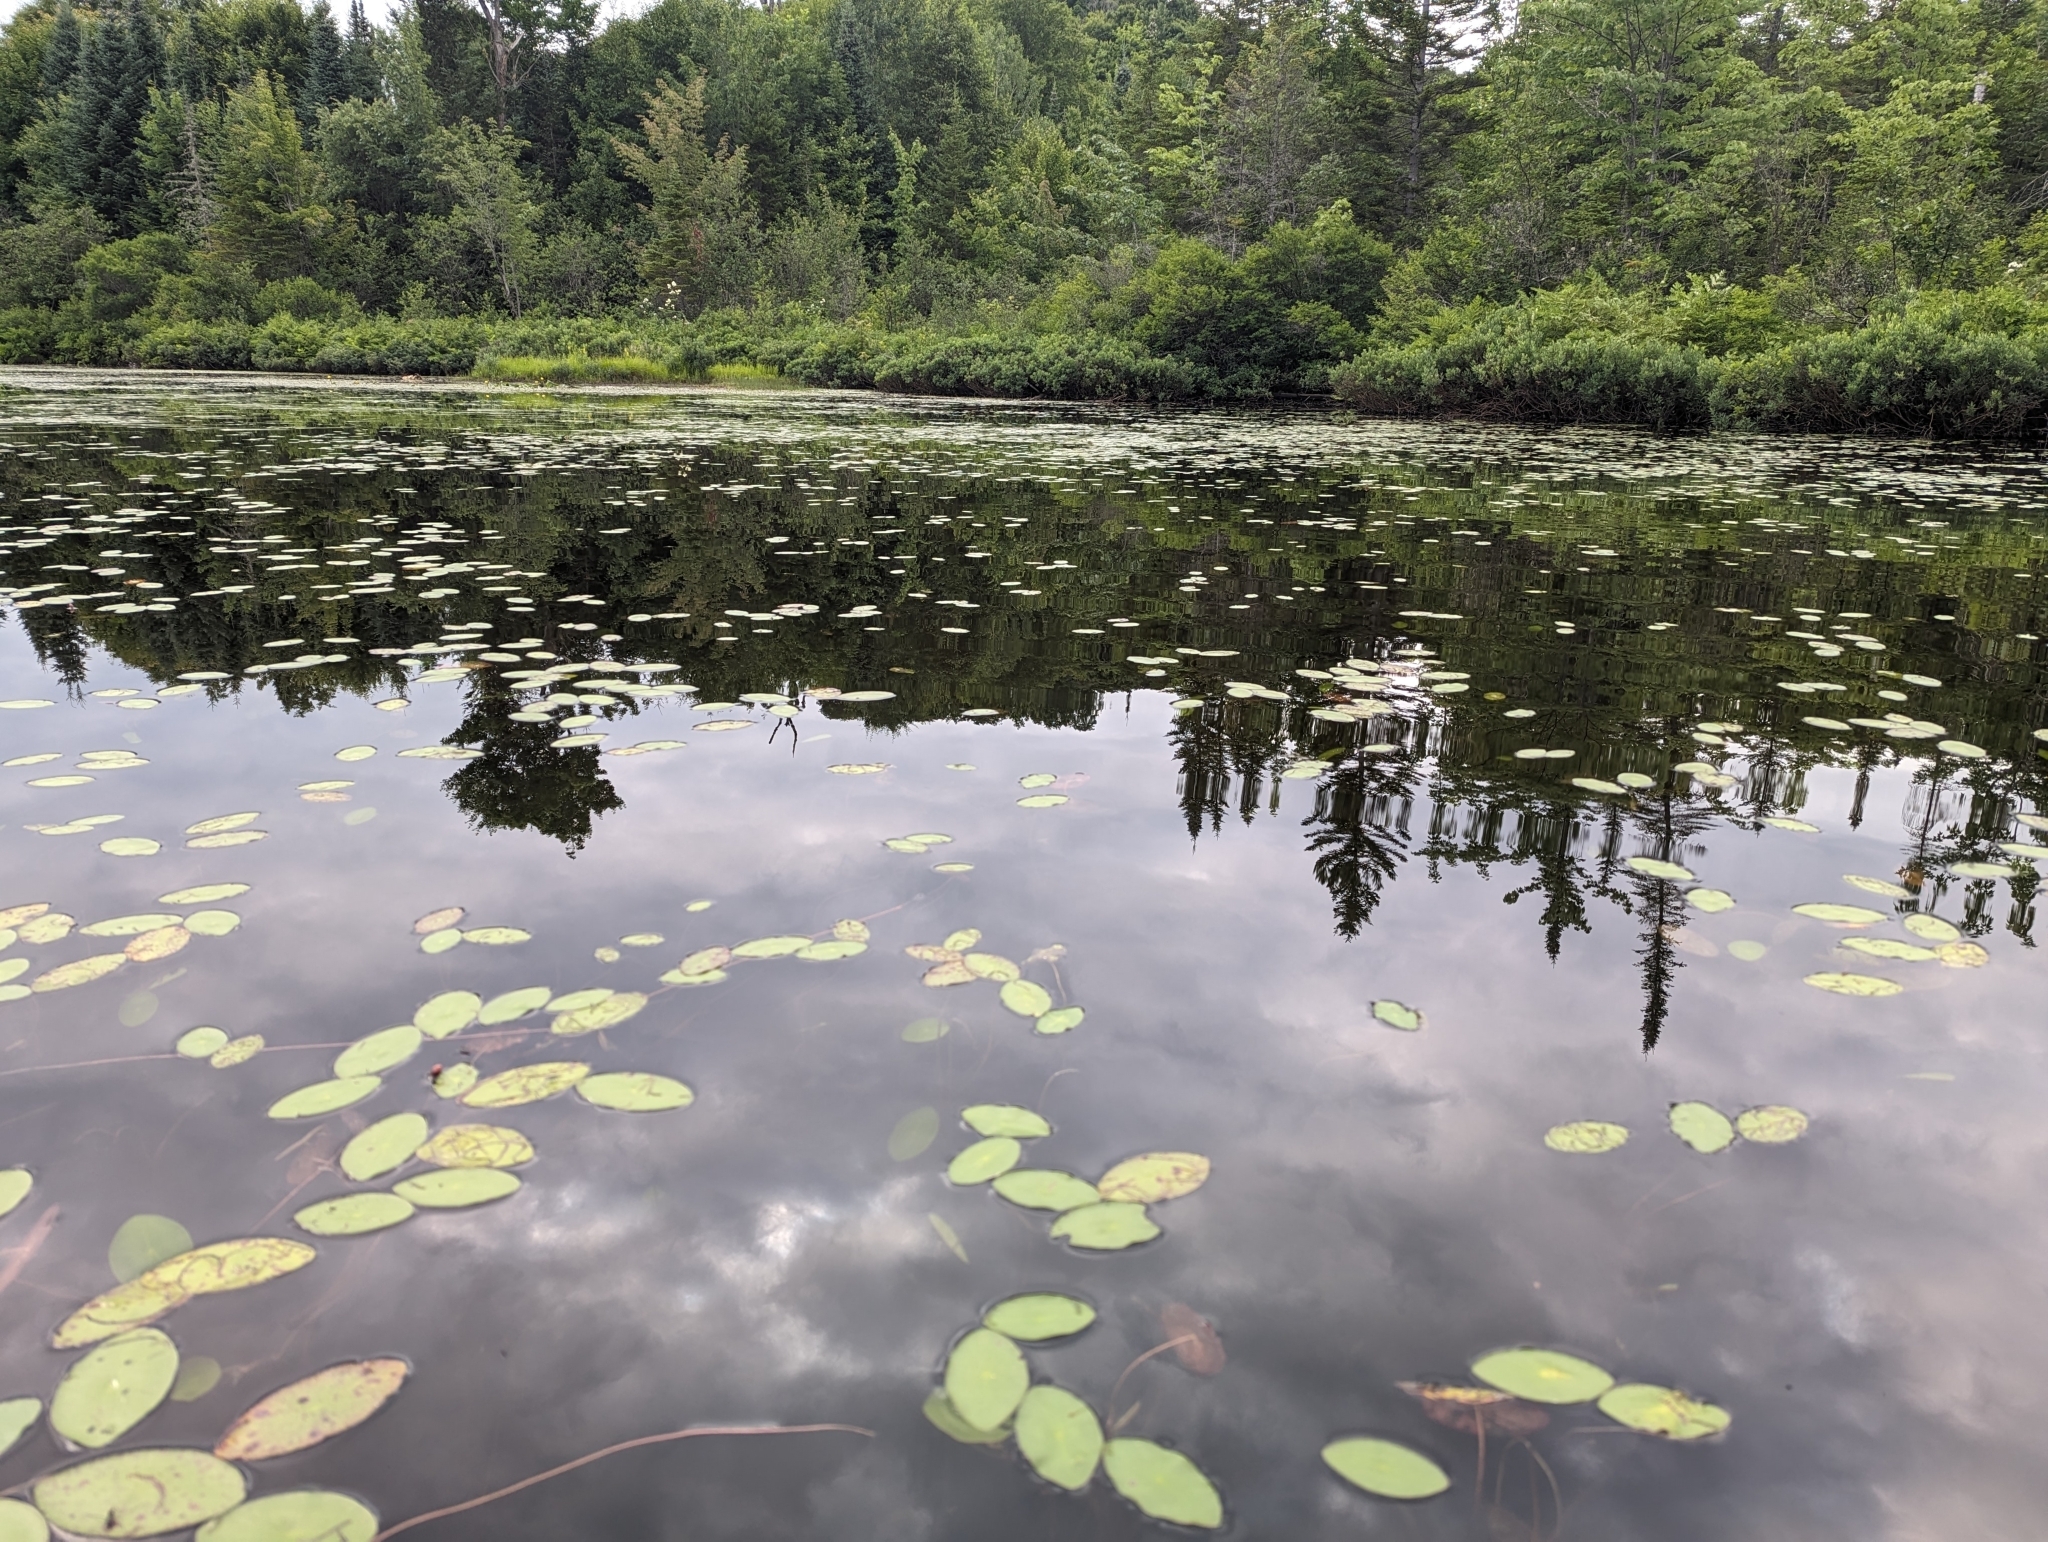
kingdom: Plantae
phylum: Tracheophyta
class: Magnoliopsida
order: Nymphaeales
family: Cabombaceae
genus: Brasenia
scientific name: Brasenia schreberi
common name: Water-shield
